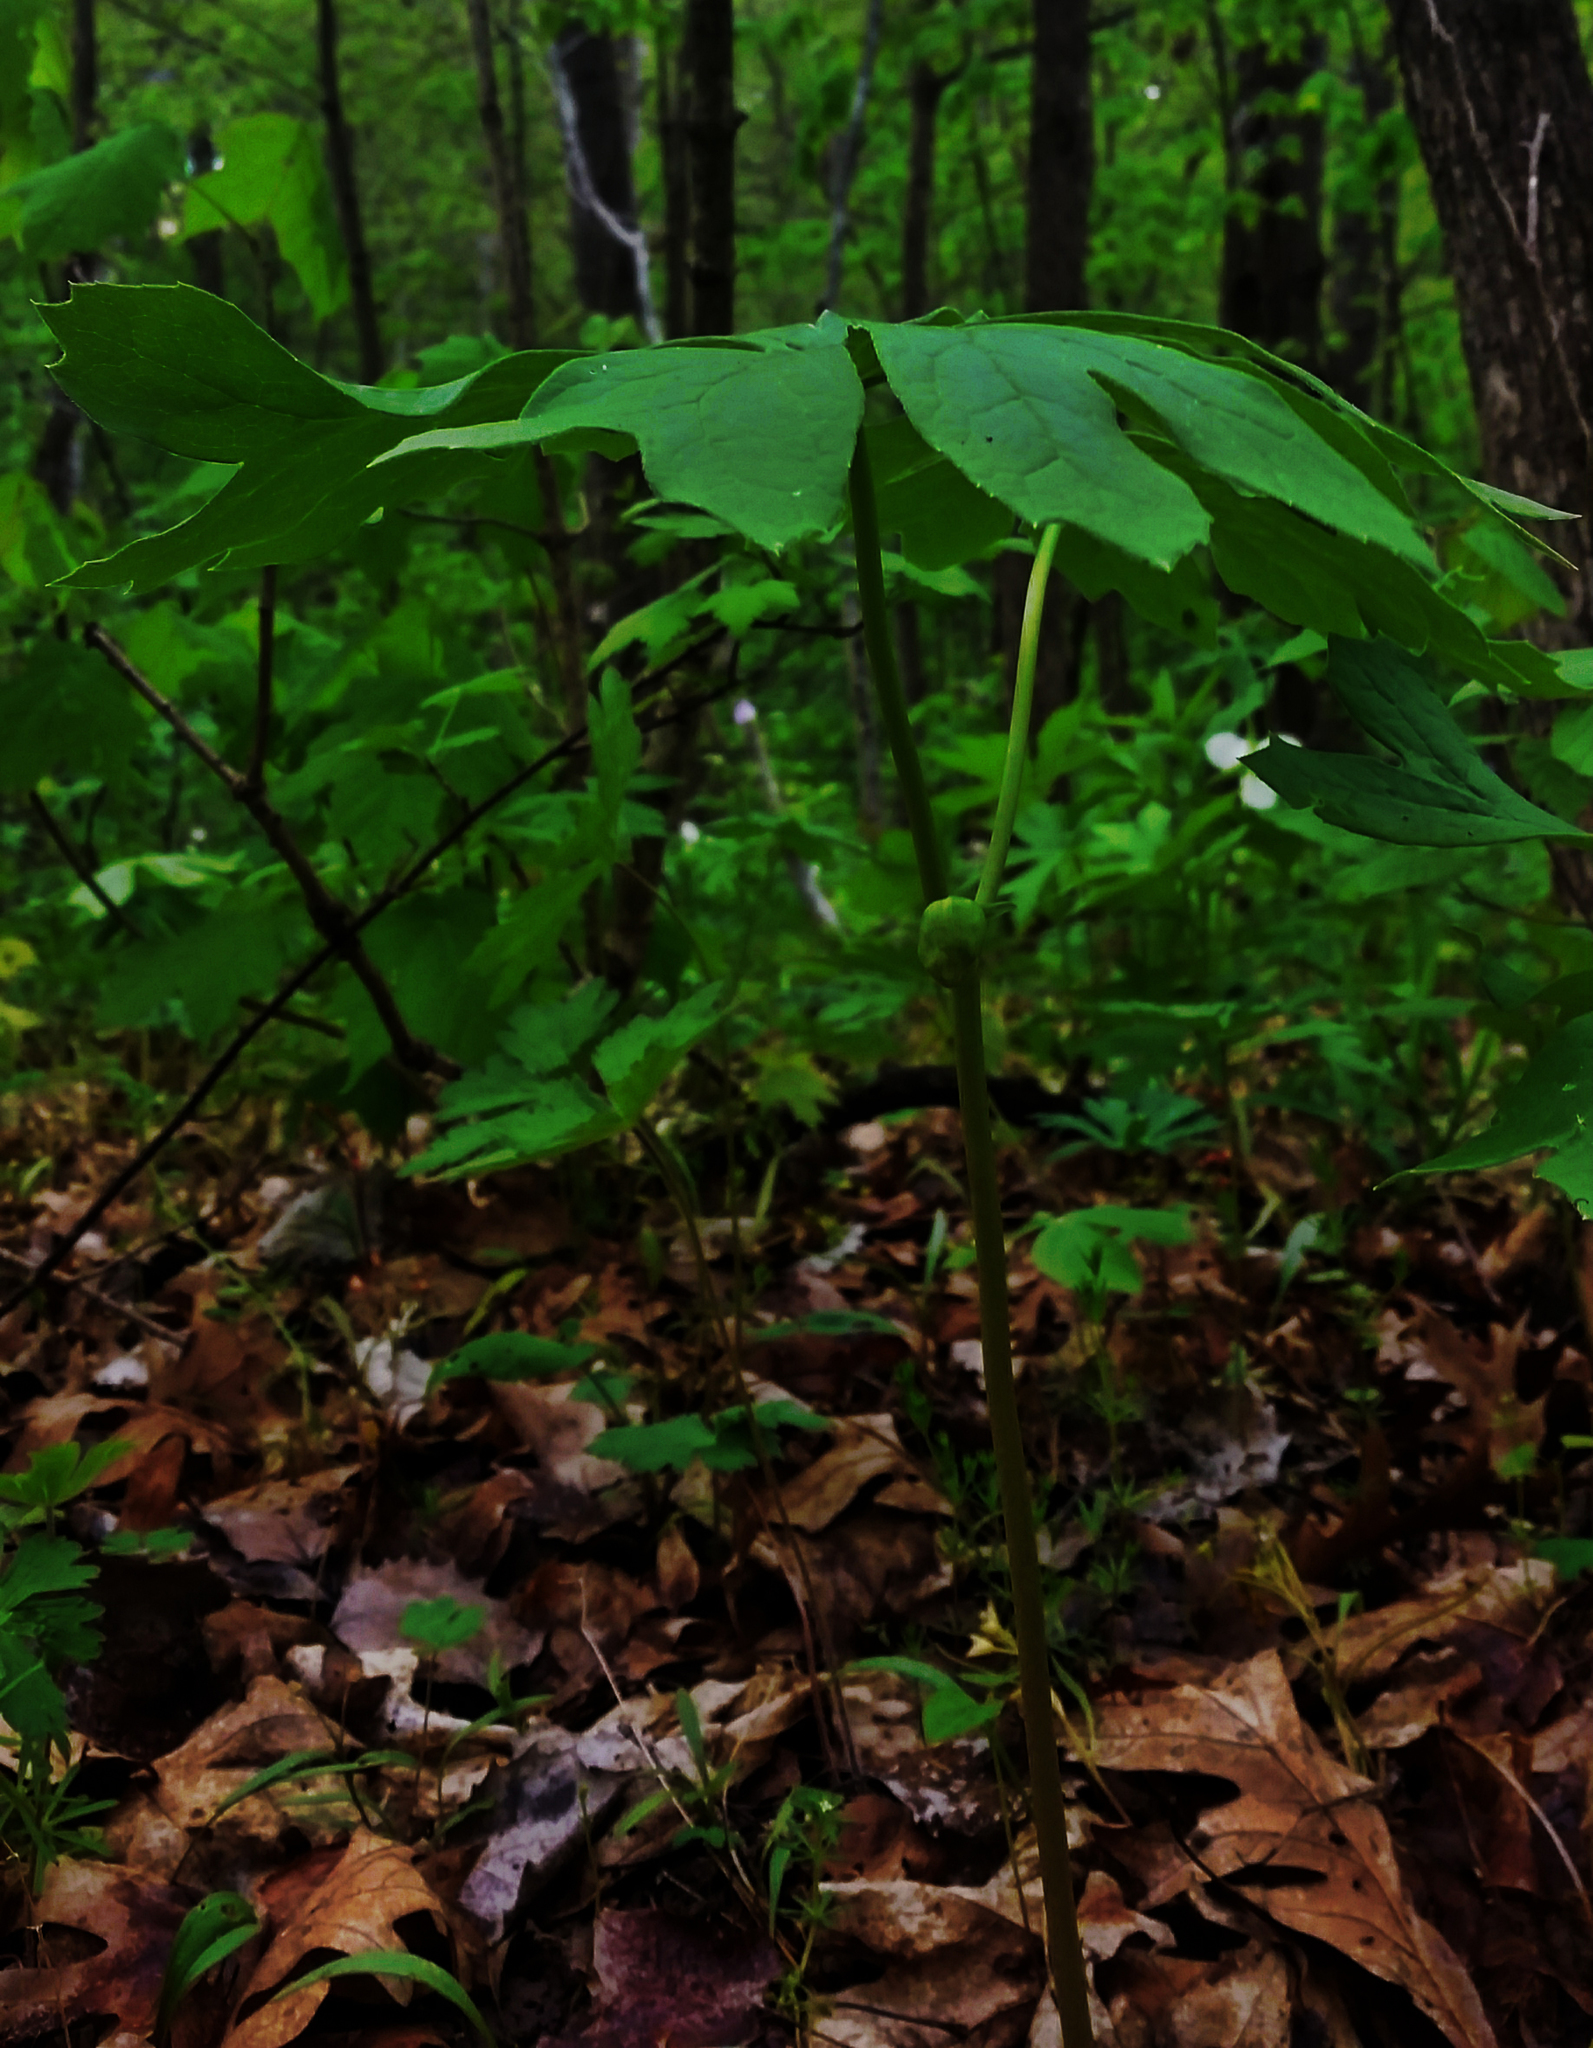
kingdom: Plantae
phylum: Tracheophyta
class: Magnoliopsida
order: Ranunculales
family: Berberidaceae
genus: Podophyllum
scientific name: Podophyllum peltatum
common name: Wild mandrake
